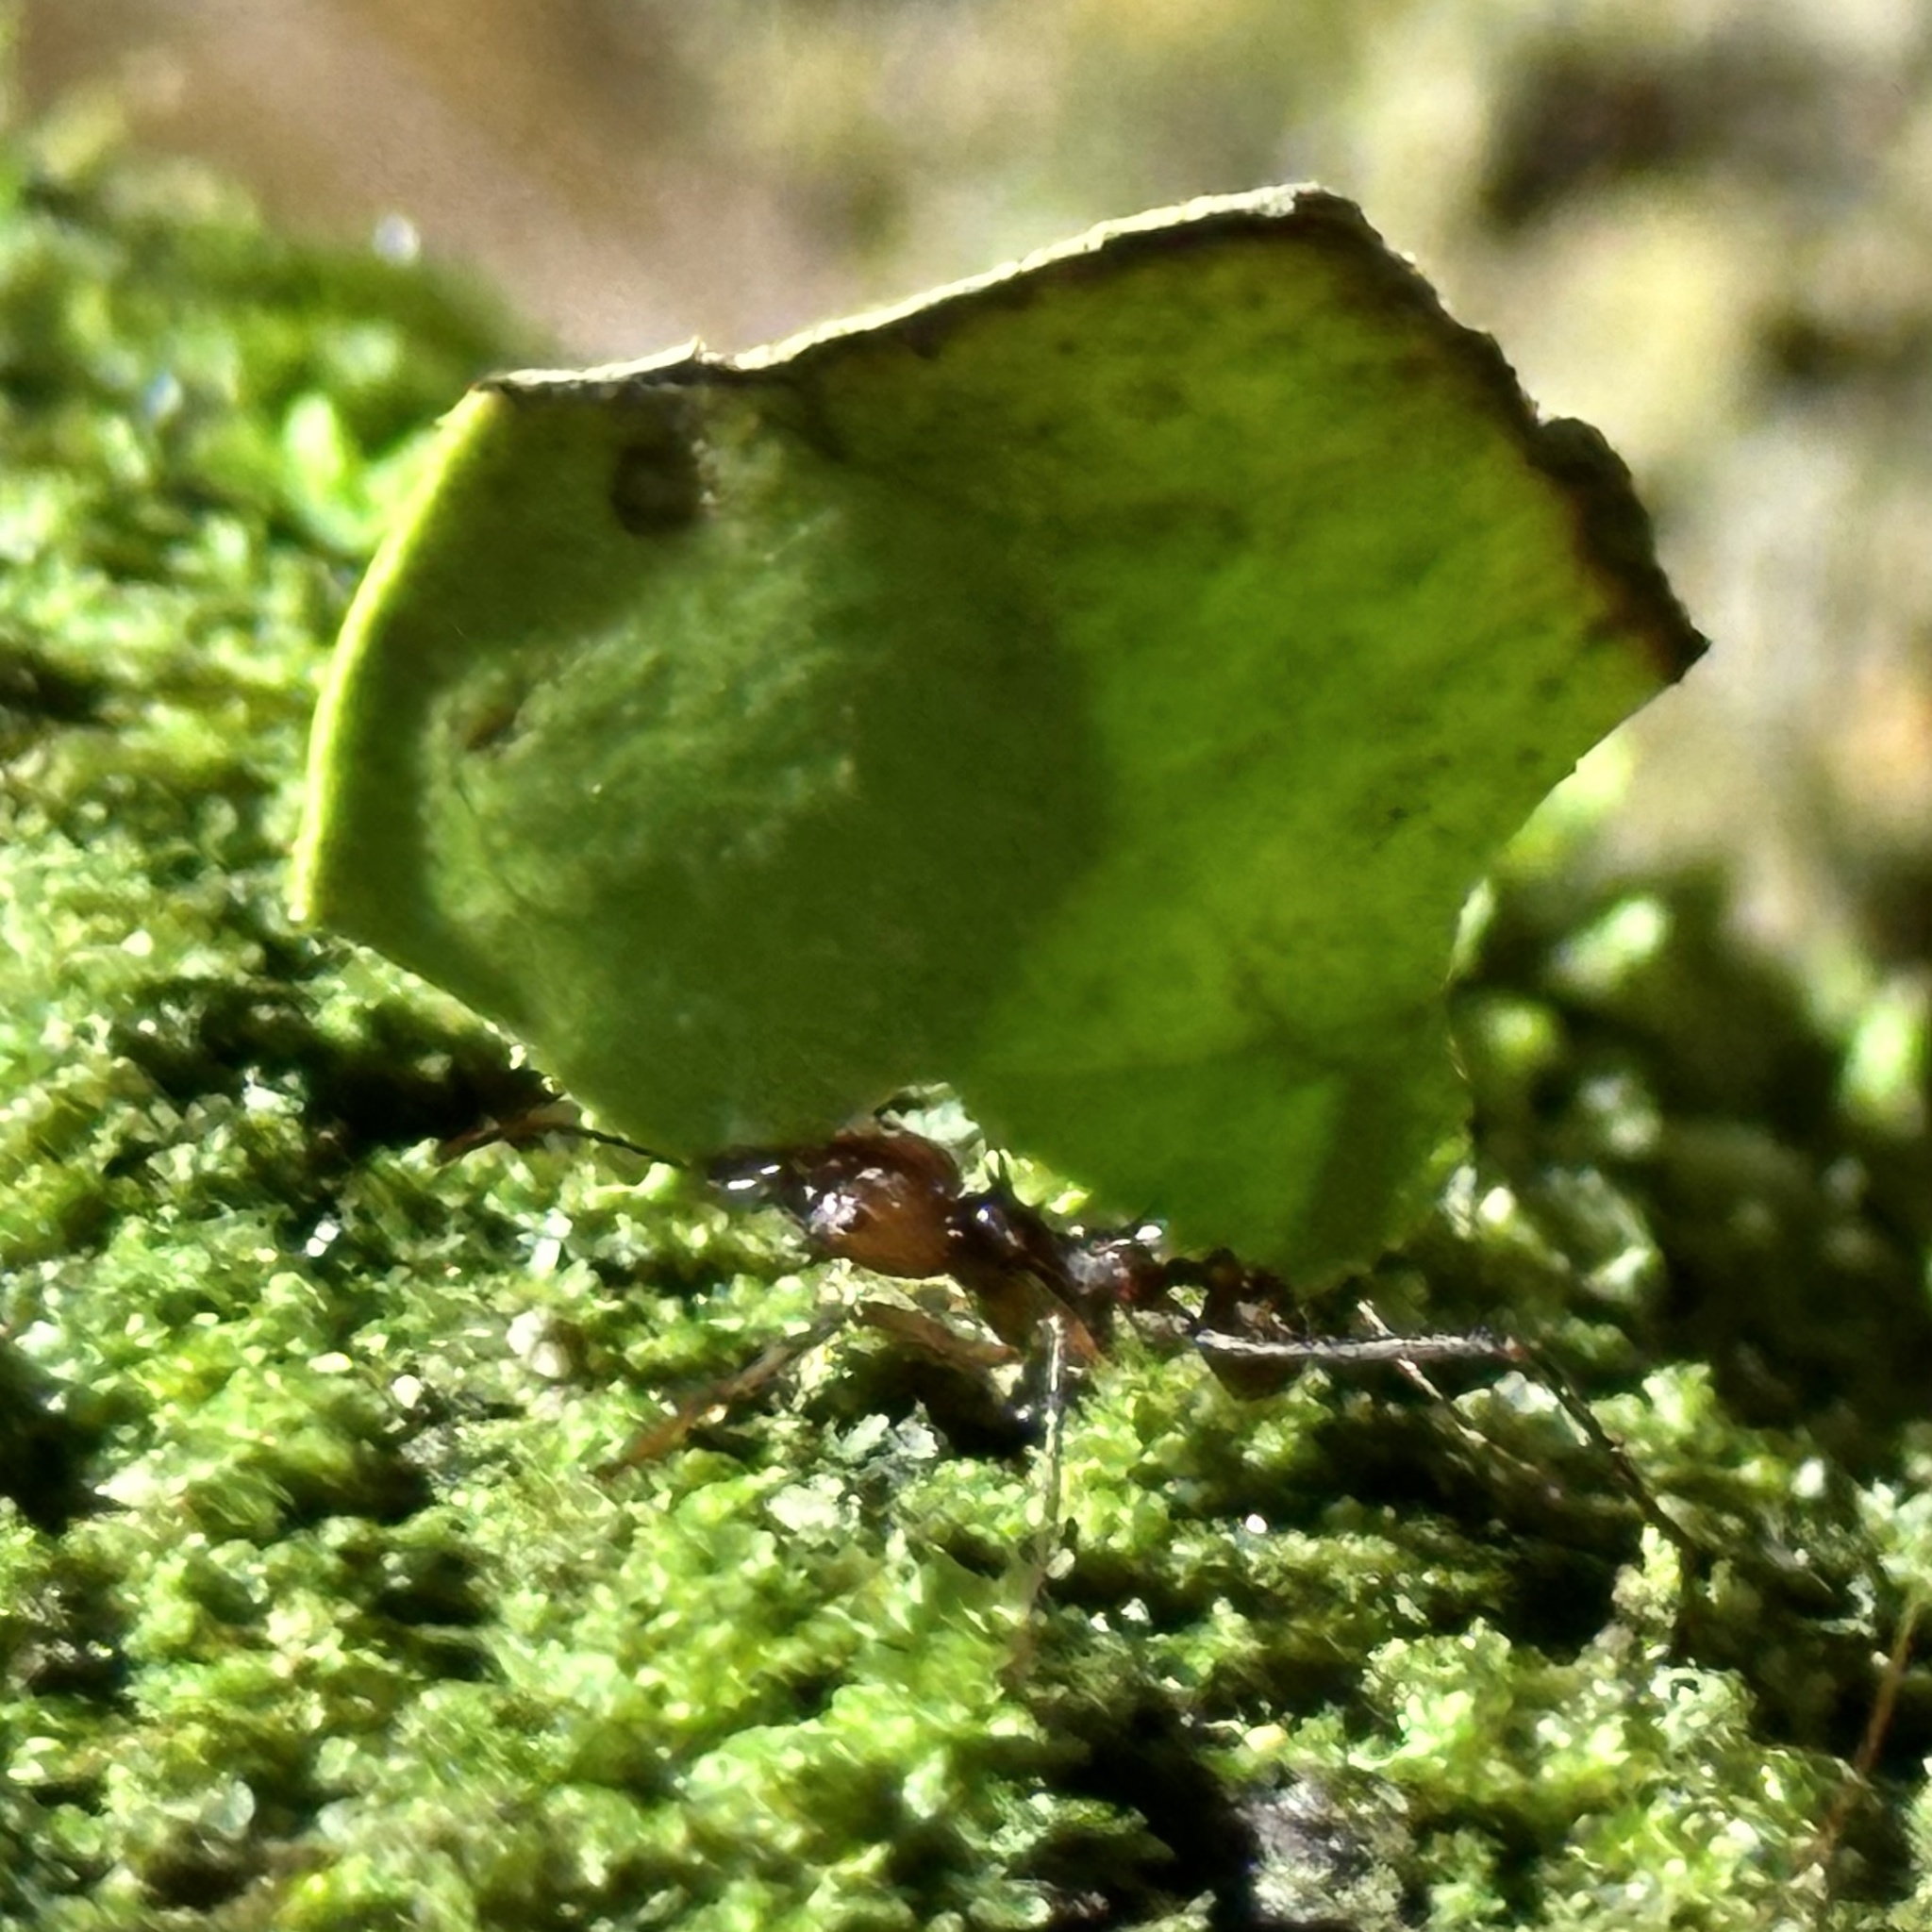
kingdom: Animalia
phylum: Arthropoda
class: Insecta
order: Hymenoptera
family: Formicidae
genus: Atta
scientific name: Atta cephalotes
